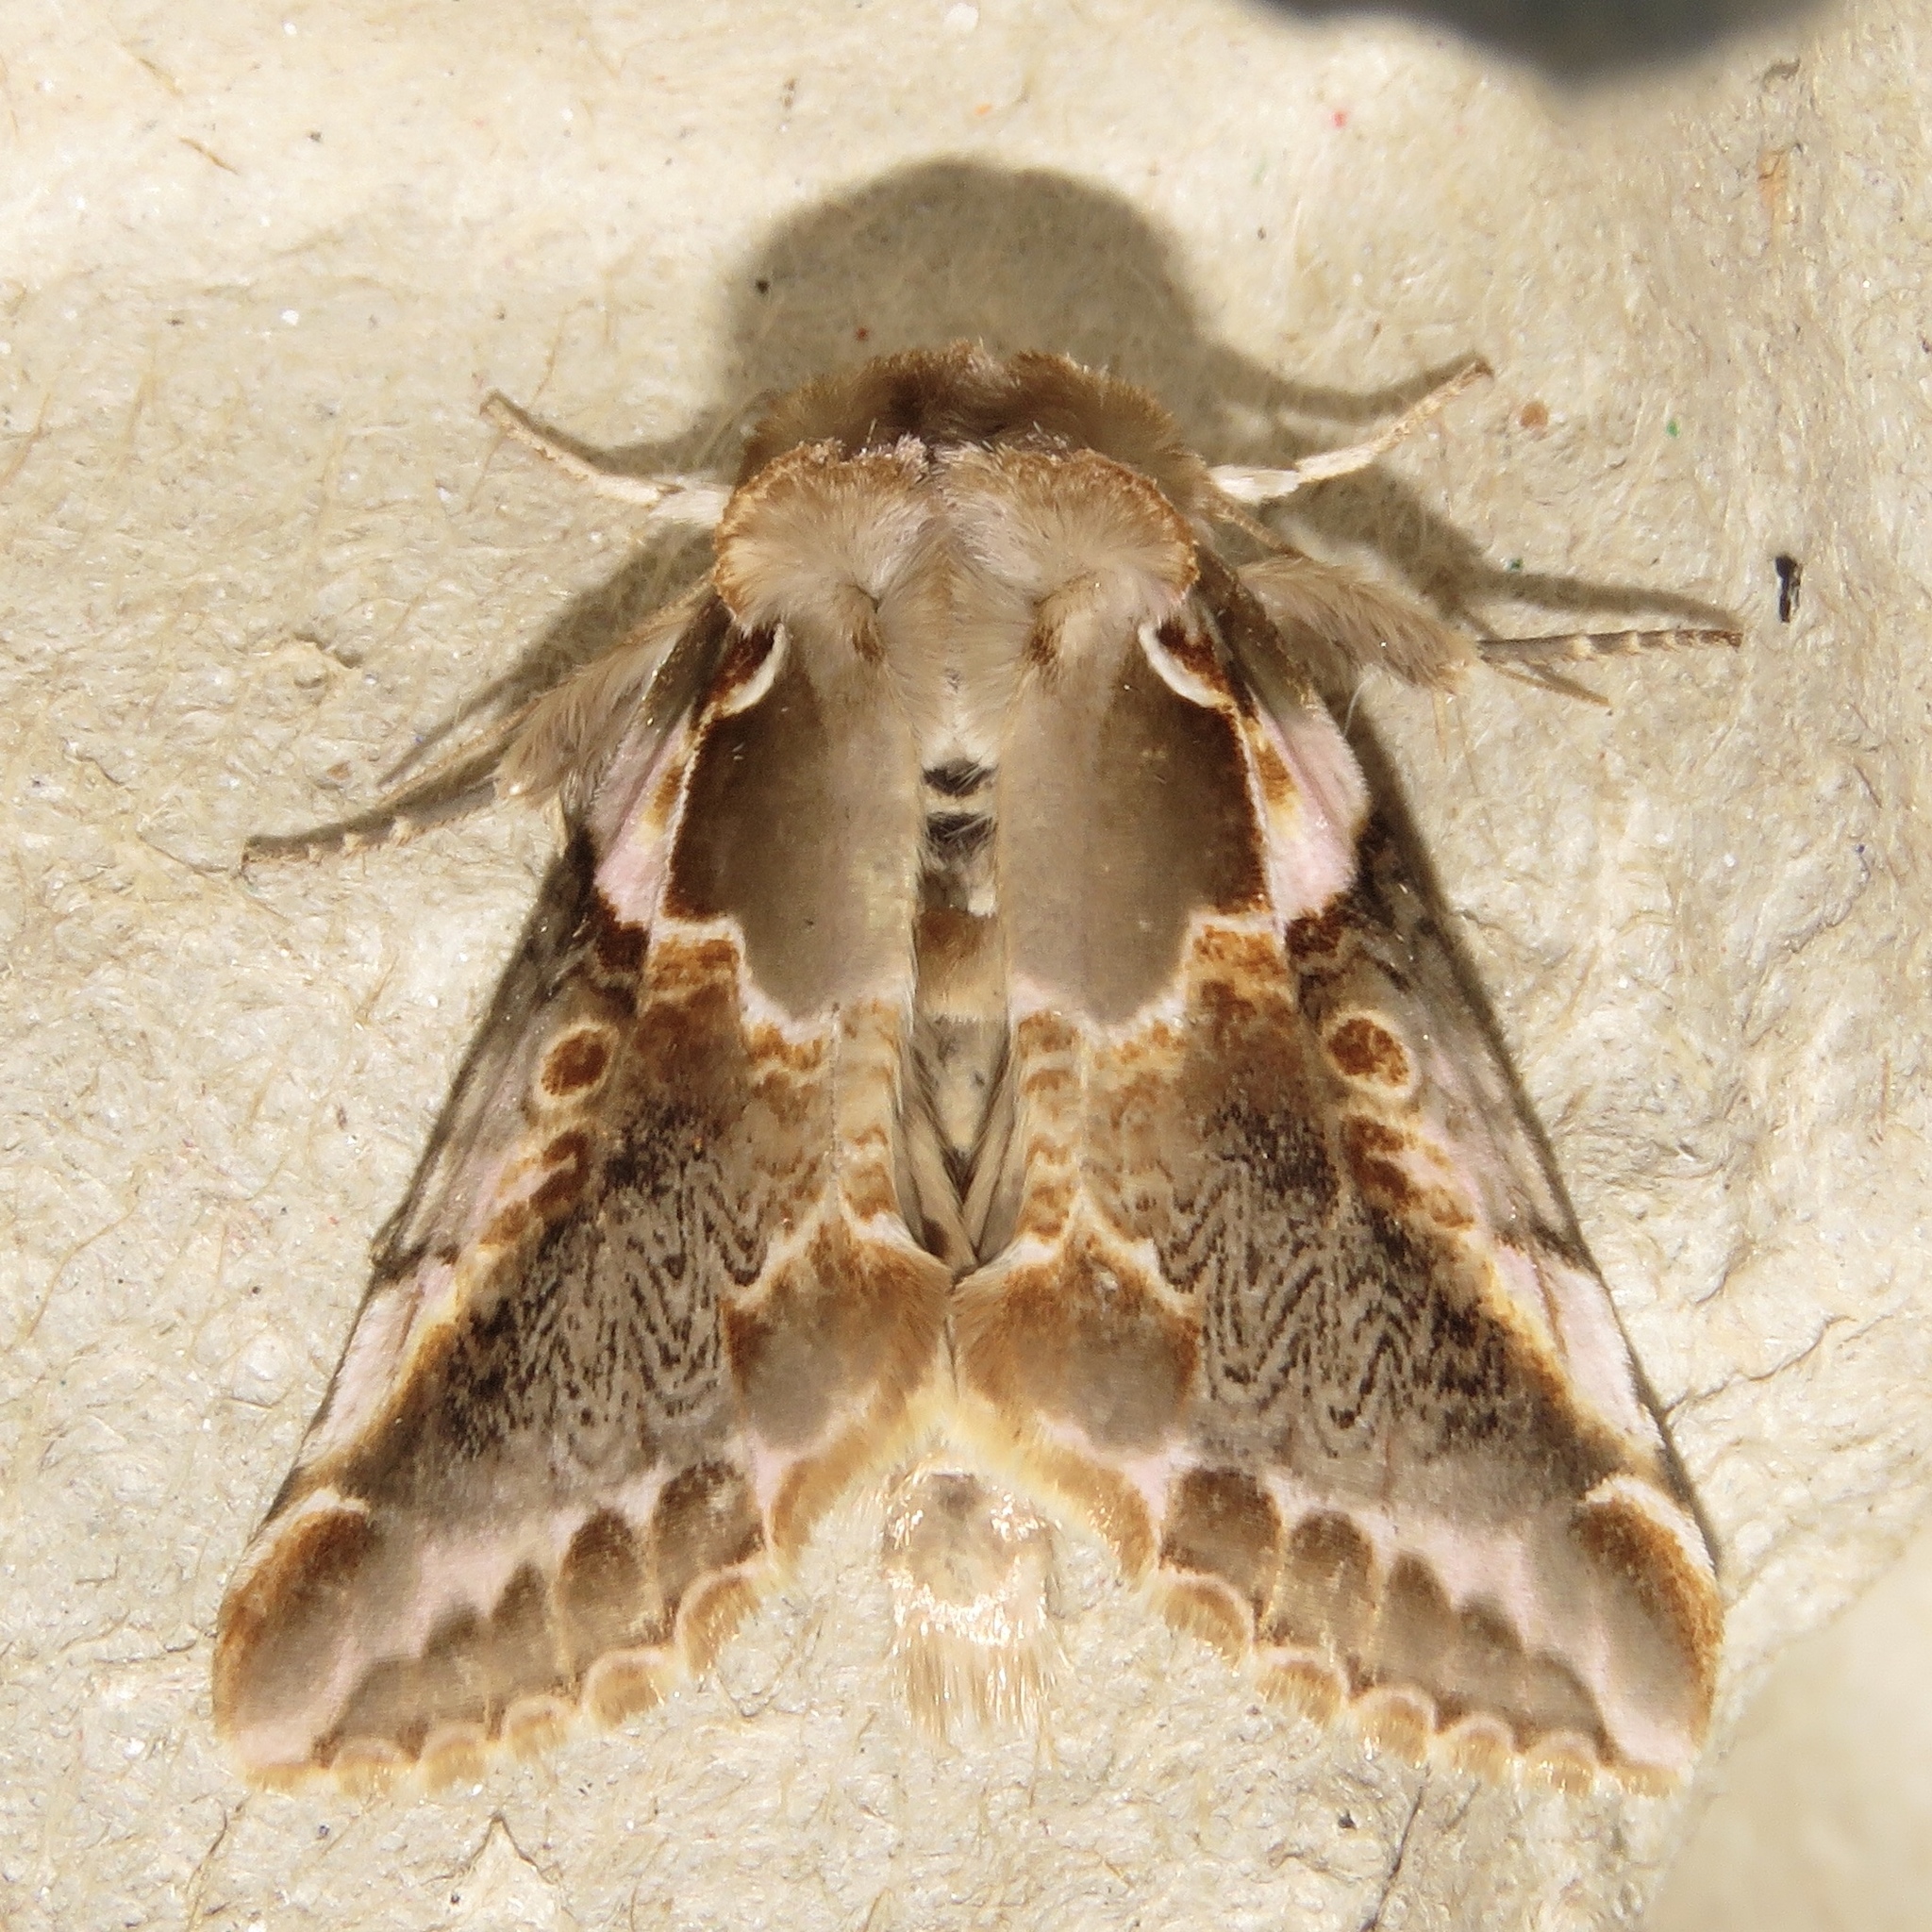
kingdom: Animalia
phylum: Arthropoda
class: Insecta
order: Lepidoptera
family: Drepanidae
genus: Habrosyne
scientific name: Habrosyne gloriosa
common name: Glorious habrosyne moth
